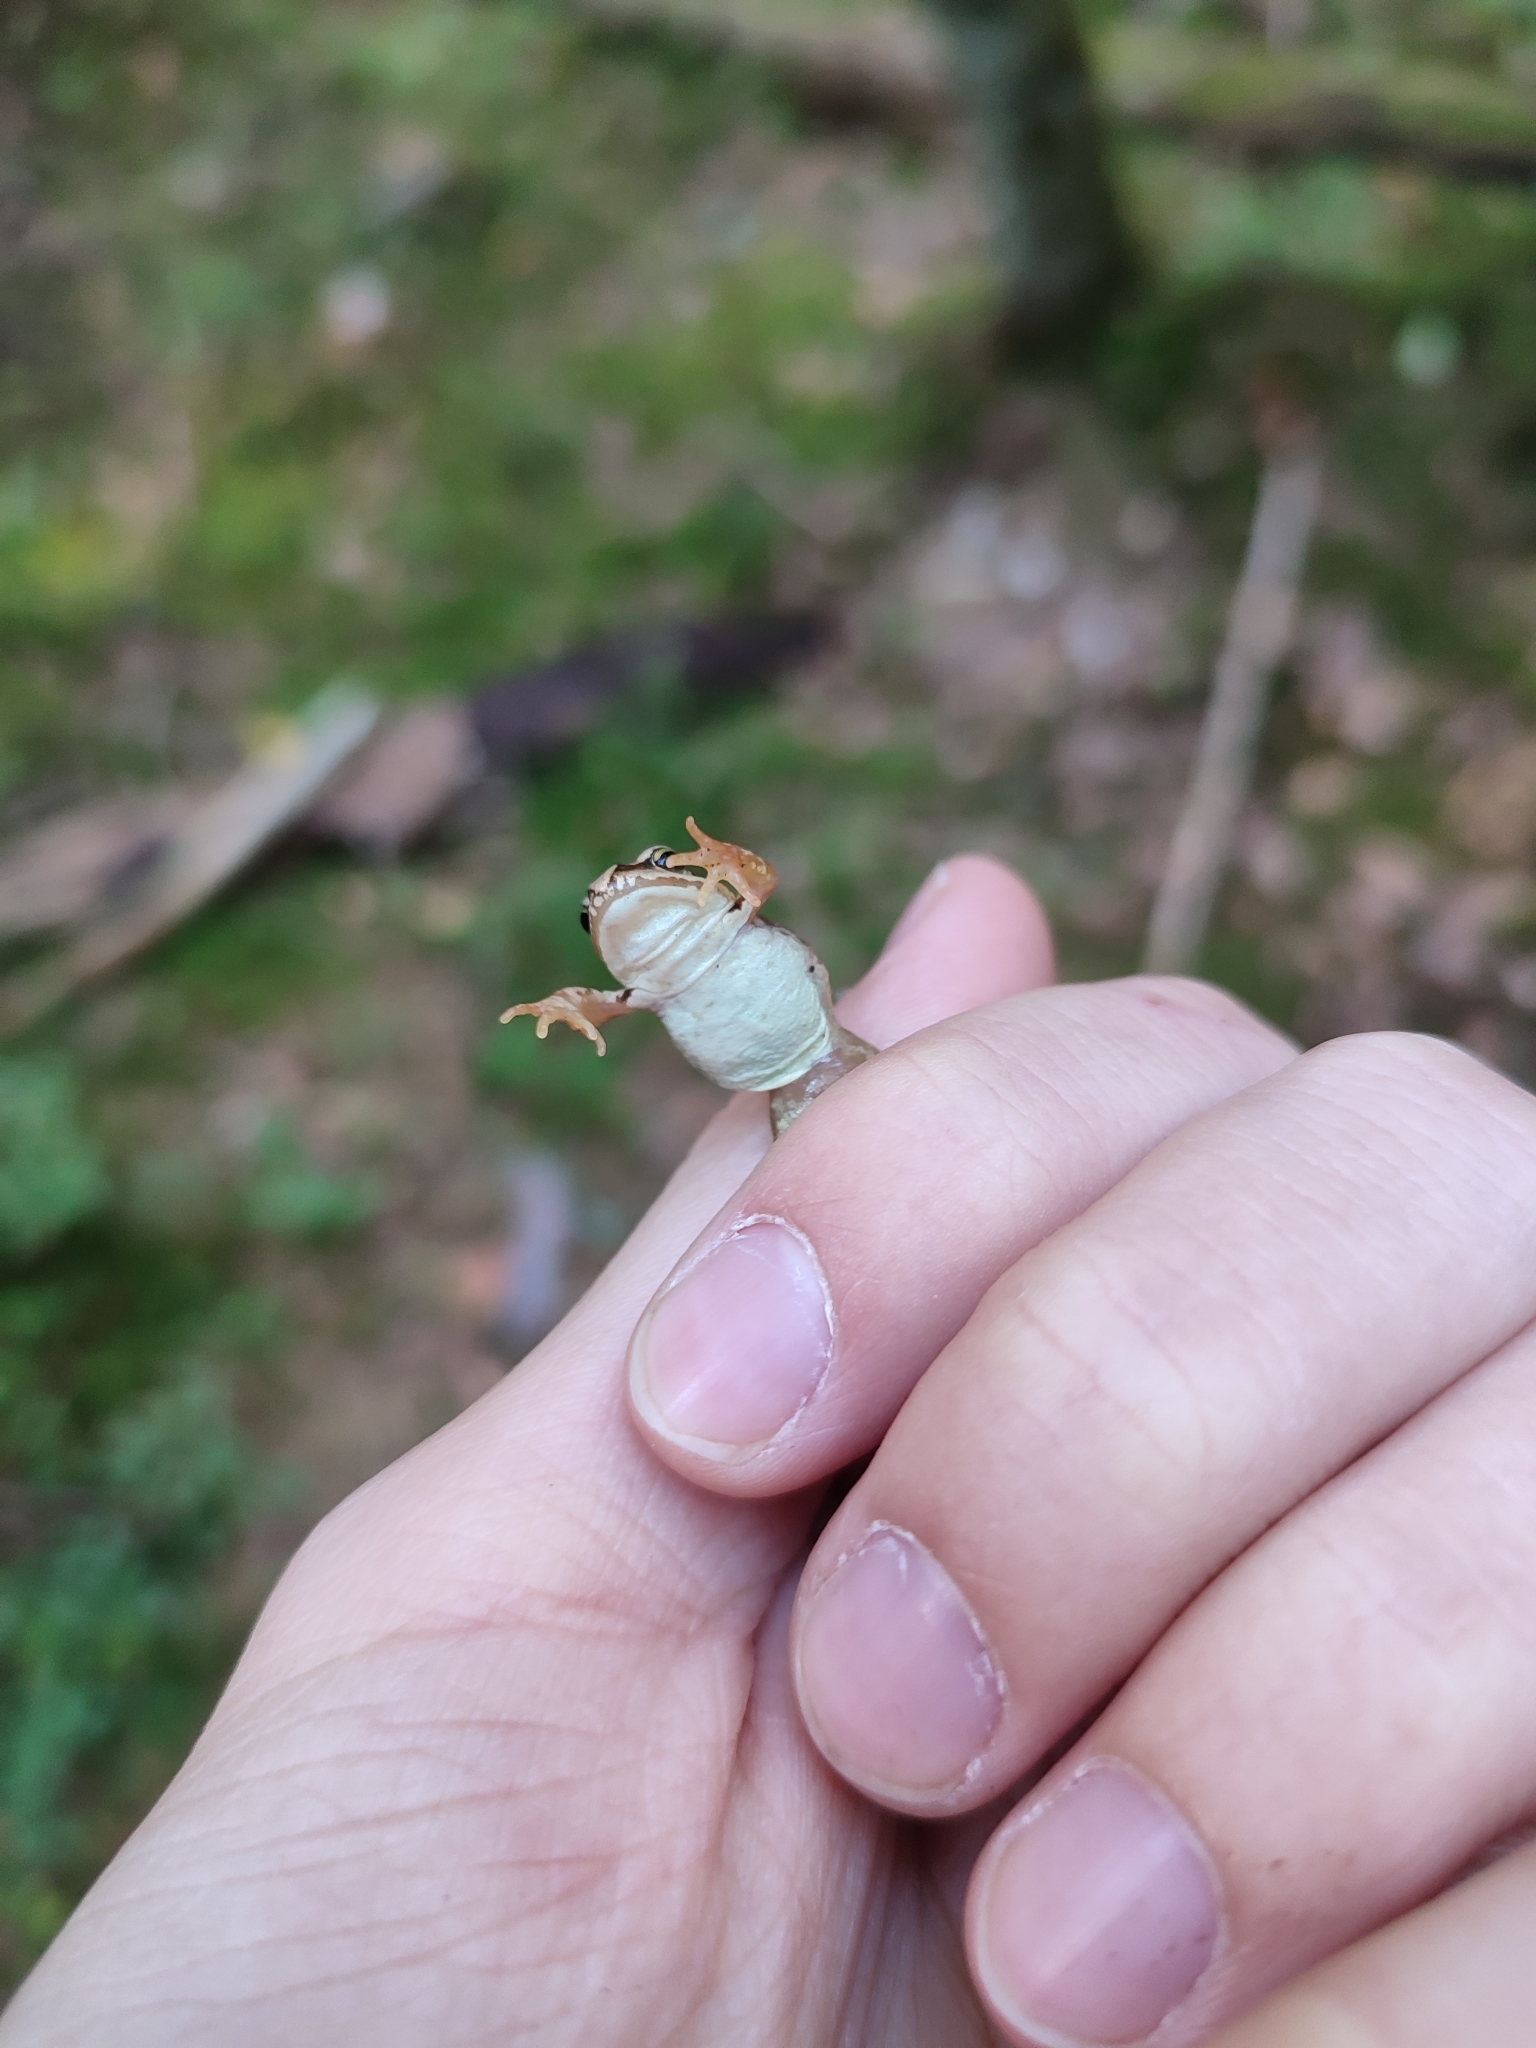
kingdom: Animalia
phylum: Chordata
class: Amphibia
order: Anura
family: Ranidae
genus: Rana
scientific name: Rana temporaria
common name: Common frog
